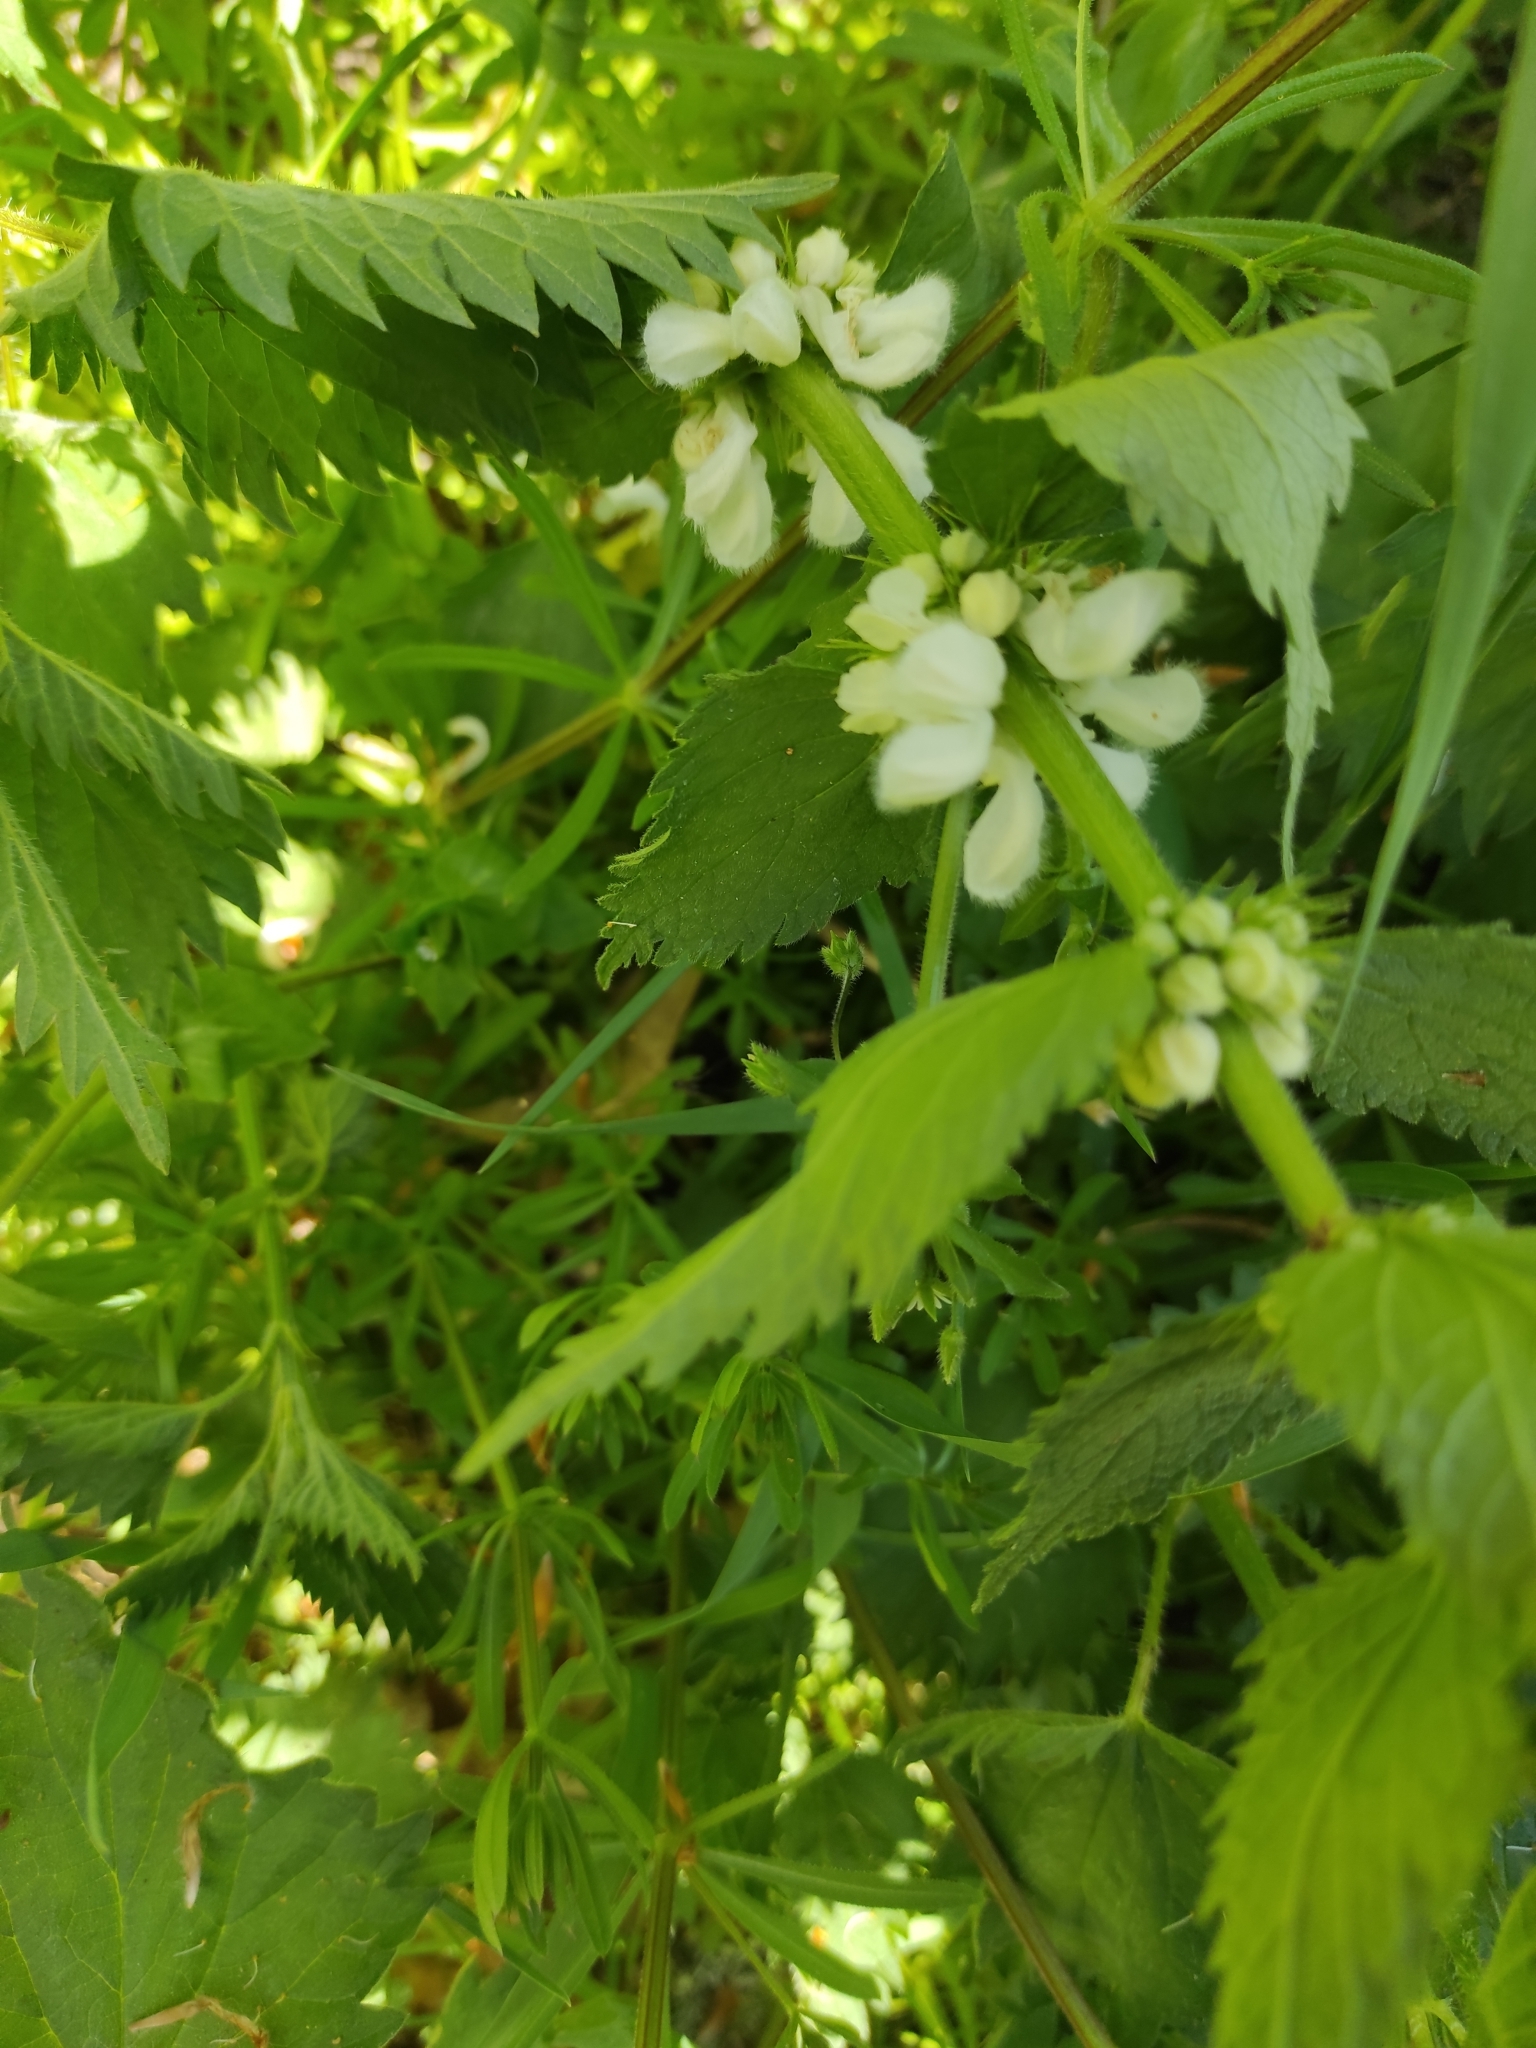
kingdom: Plantae
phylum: Tracheophyta
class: Magnoliopsida
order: Lamiales
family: Lamiaceae
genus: Lamium
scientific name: Lamium album
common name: White dead-nettle
